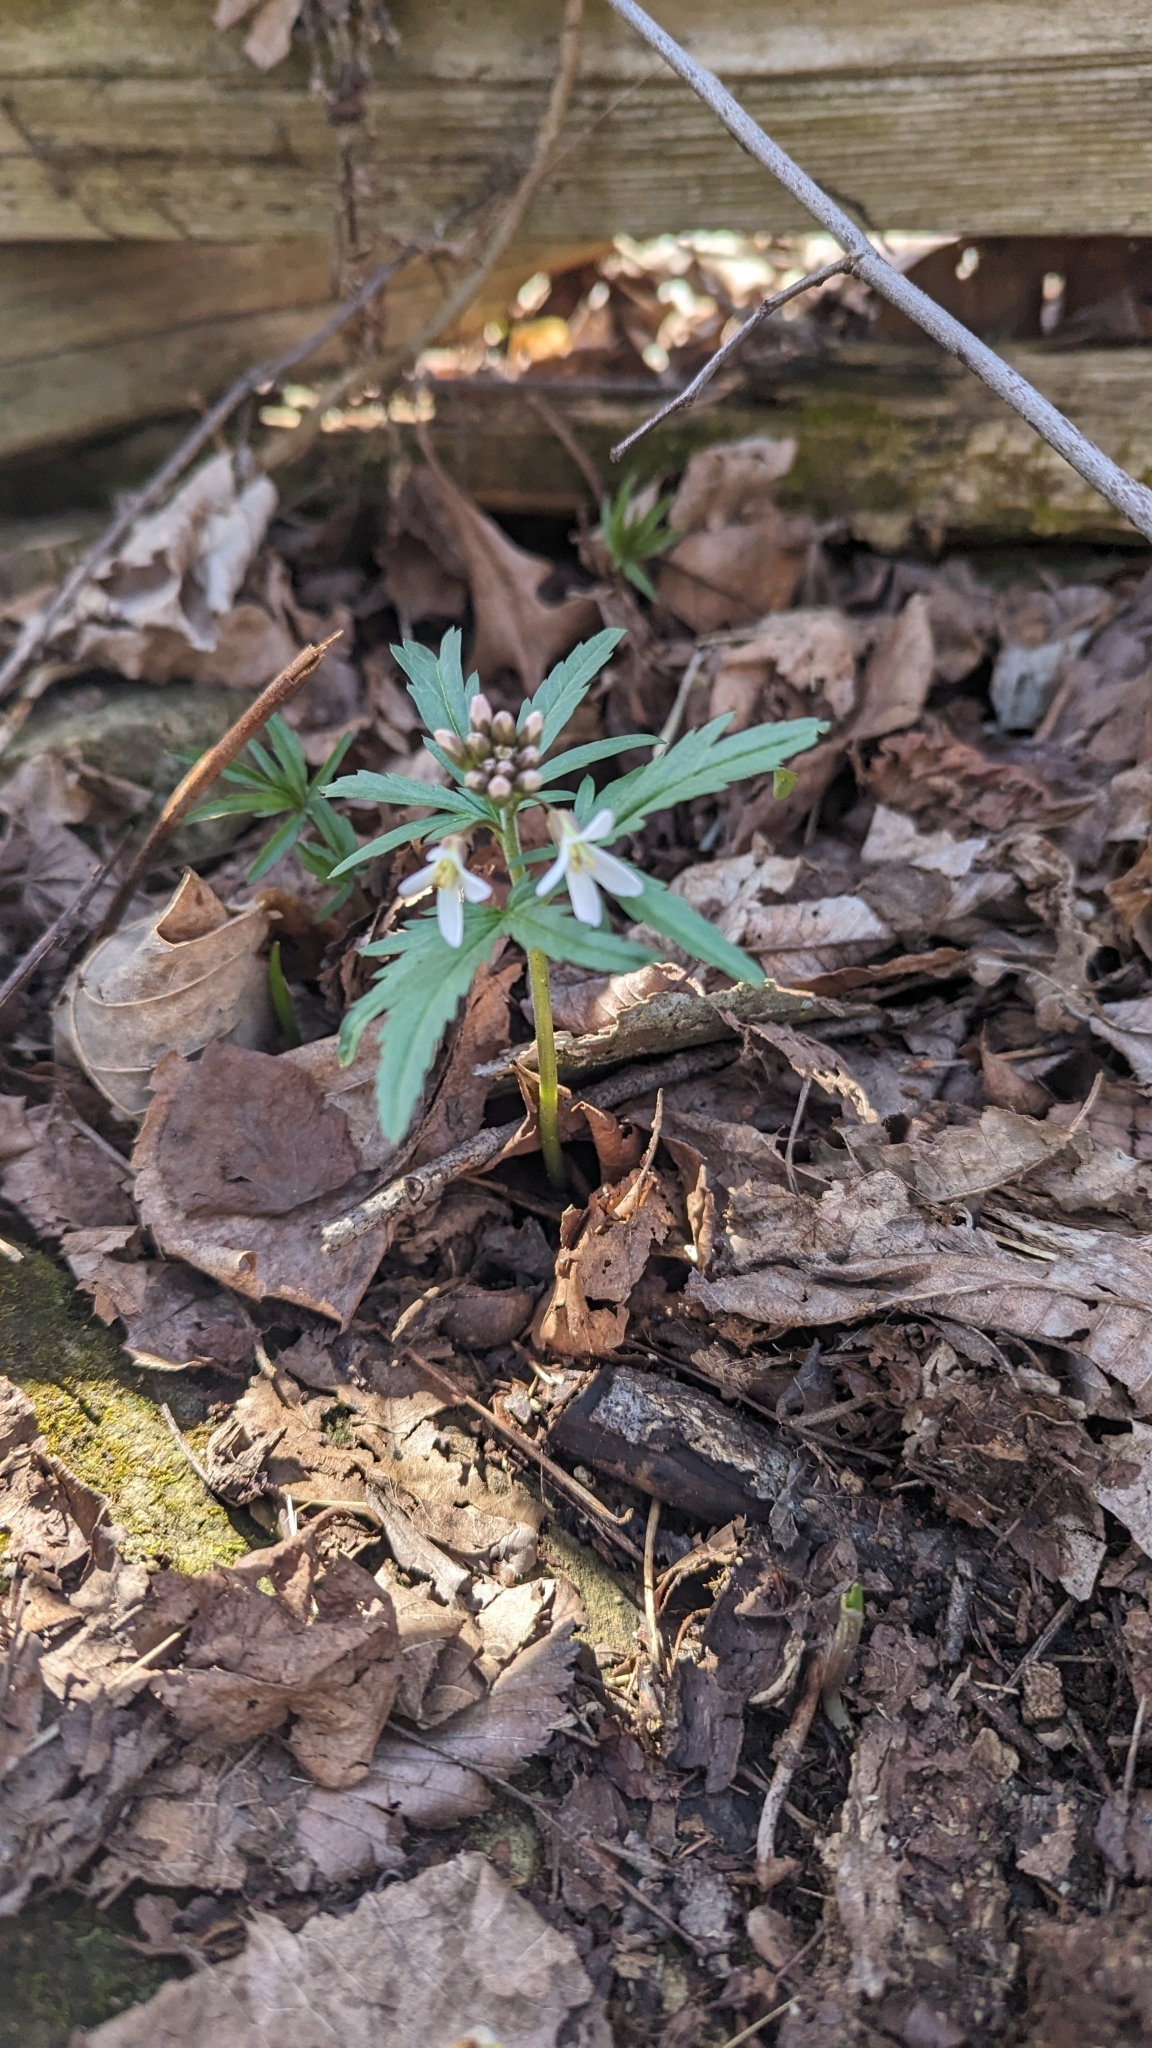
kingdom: Plantae
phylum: Tracheophyta
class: Magnoliopsida
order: Brassicales
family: Brassicaceae
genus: Cardamine
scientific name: Cardamine concatenata
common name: Cut-leaf toothcup
